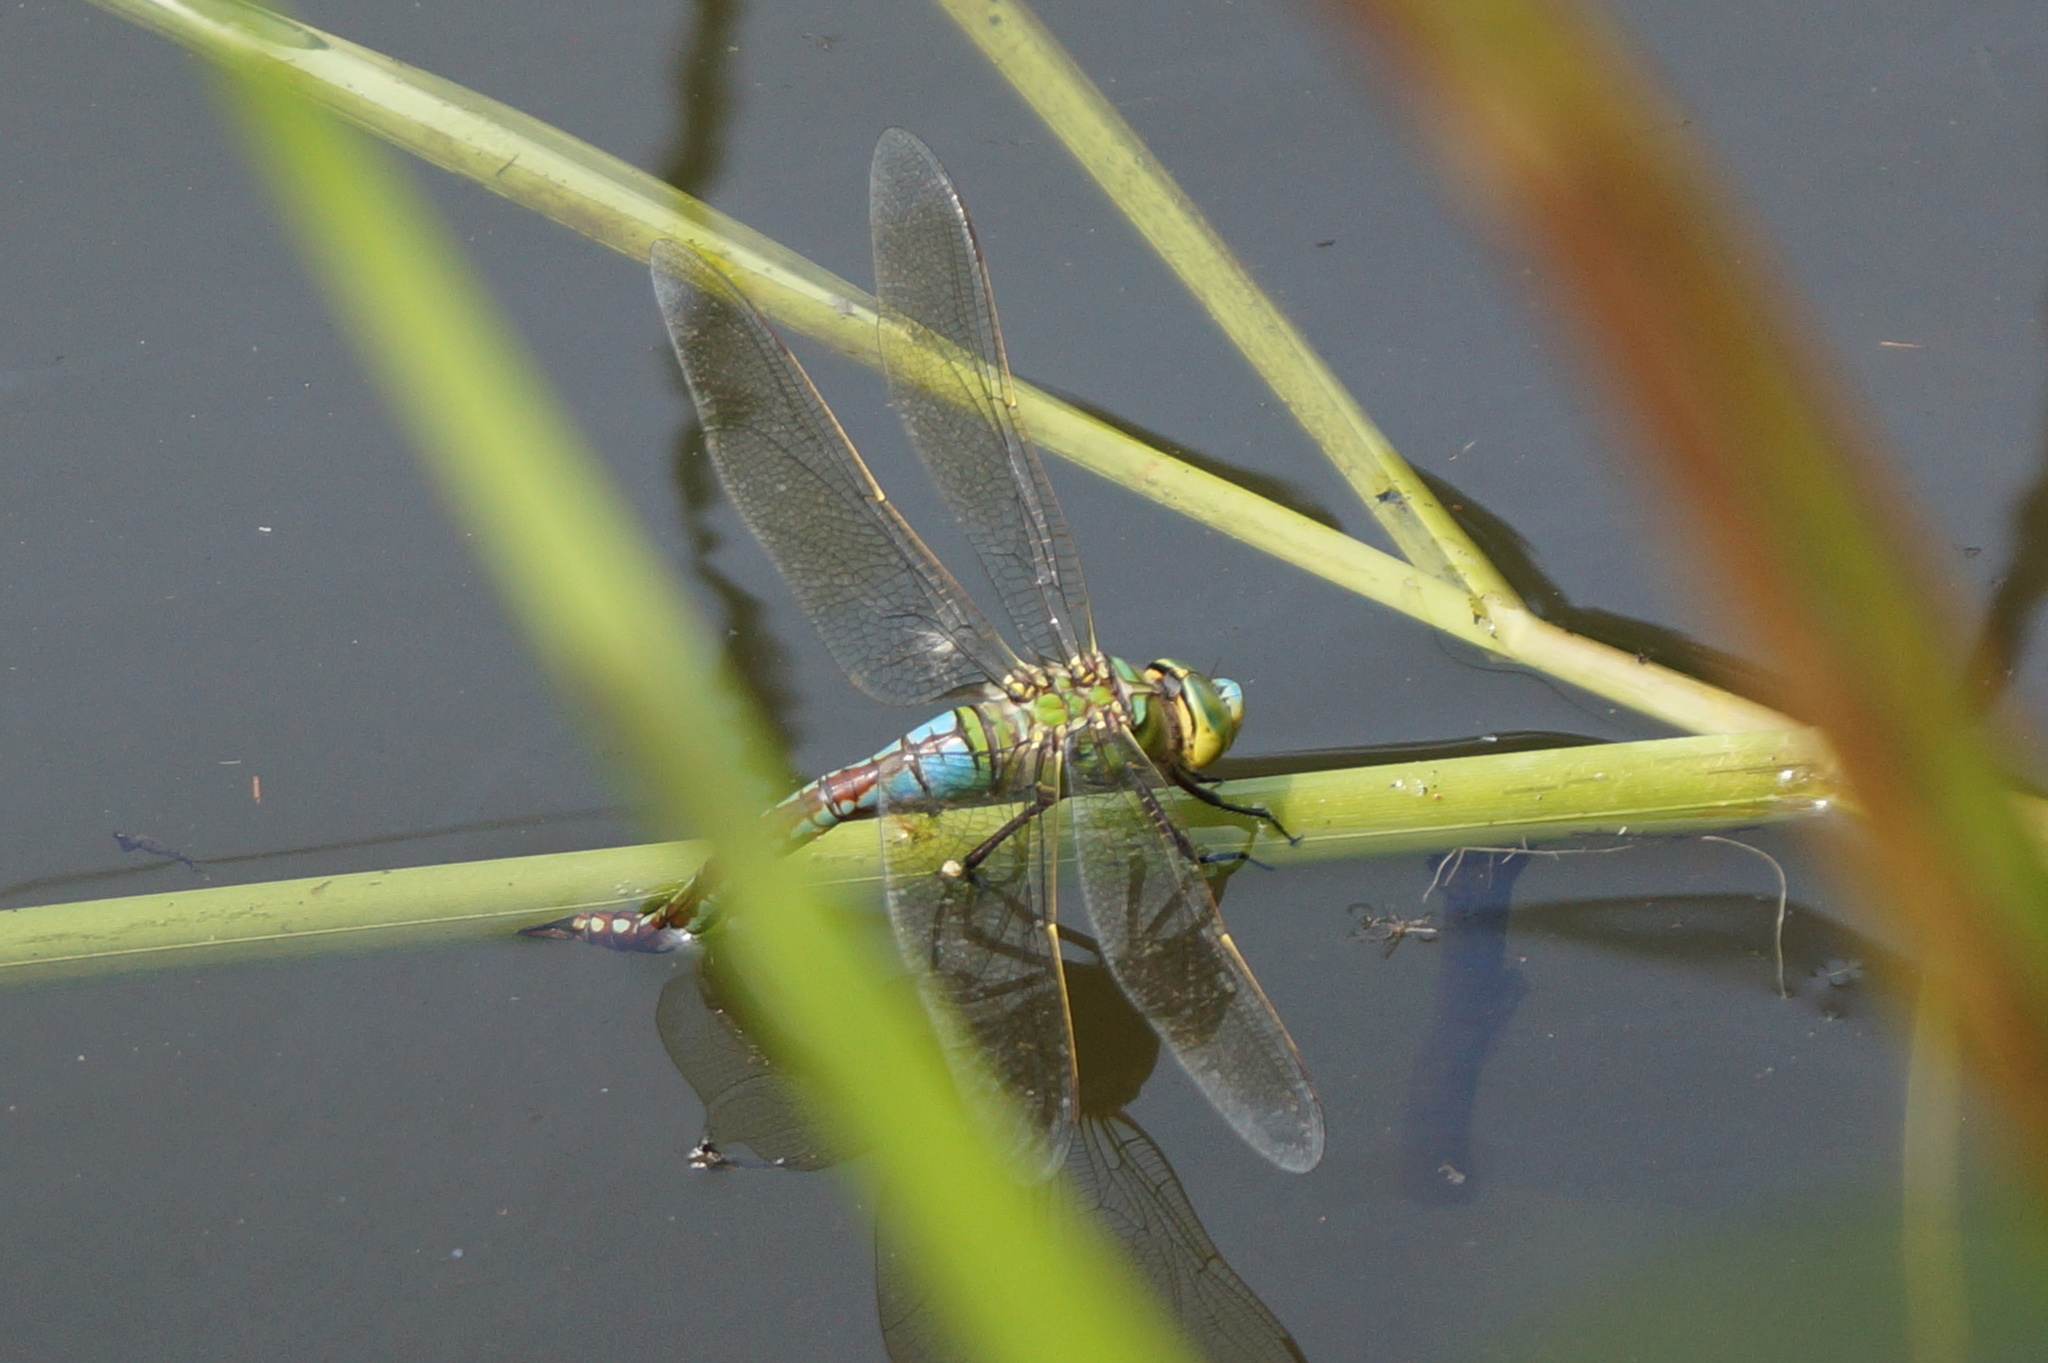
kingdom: Animalia
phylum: Arthropoda
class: Insecta
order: Odonata
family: Aeshnidae
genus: Anax
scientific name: Anax imperator
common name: Emperor dragonfly
